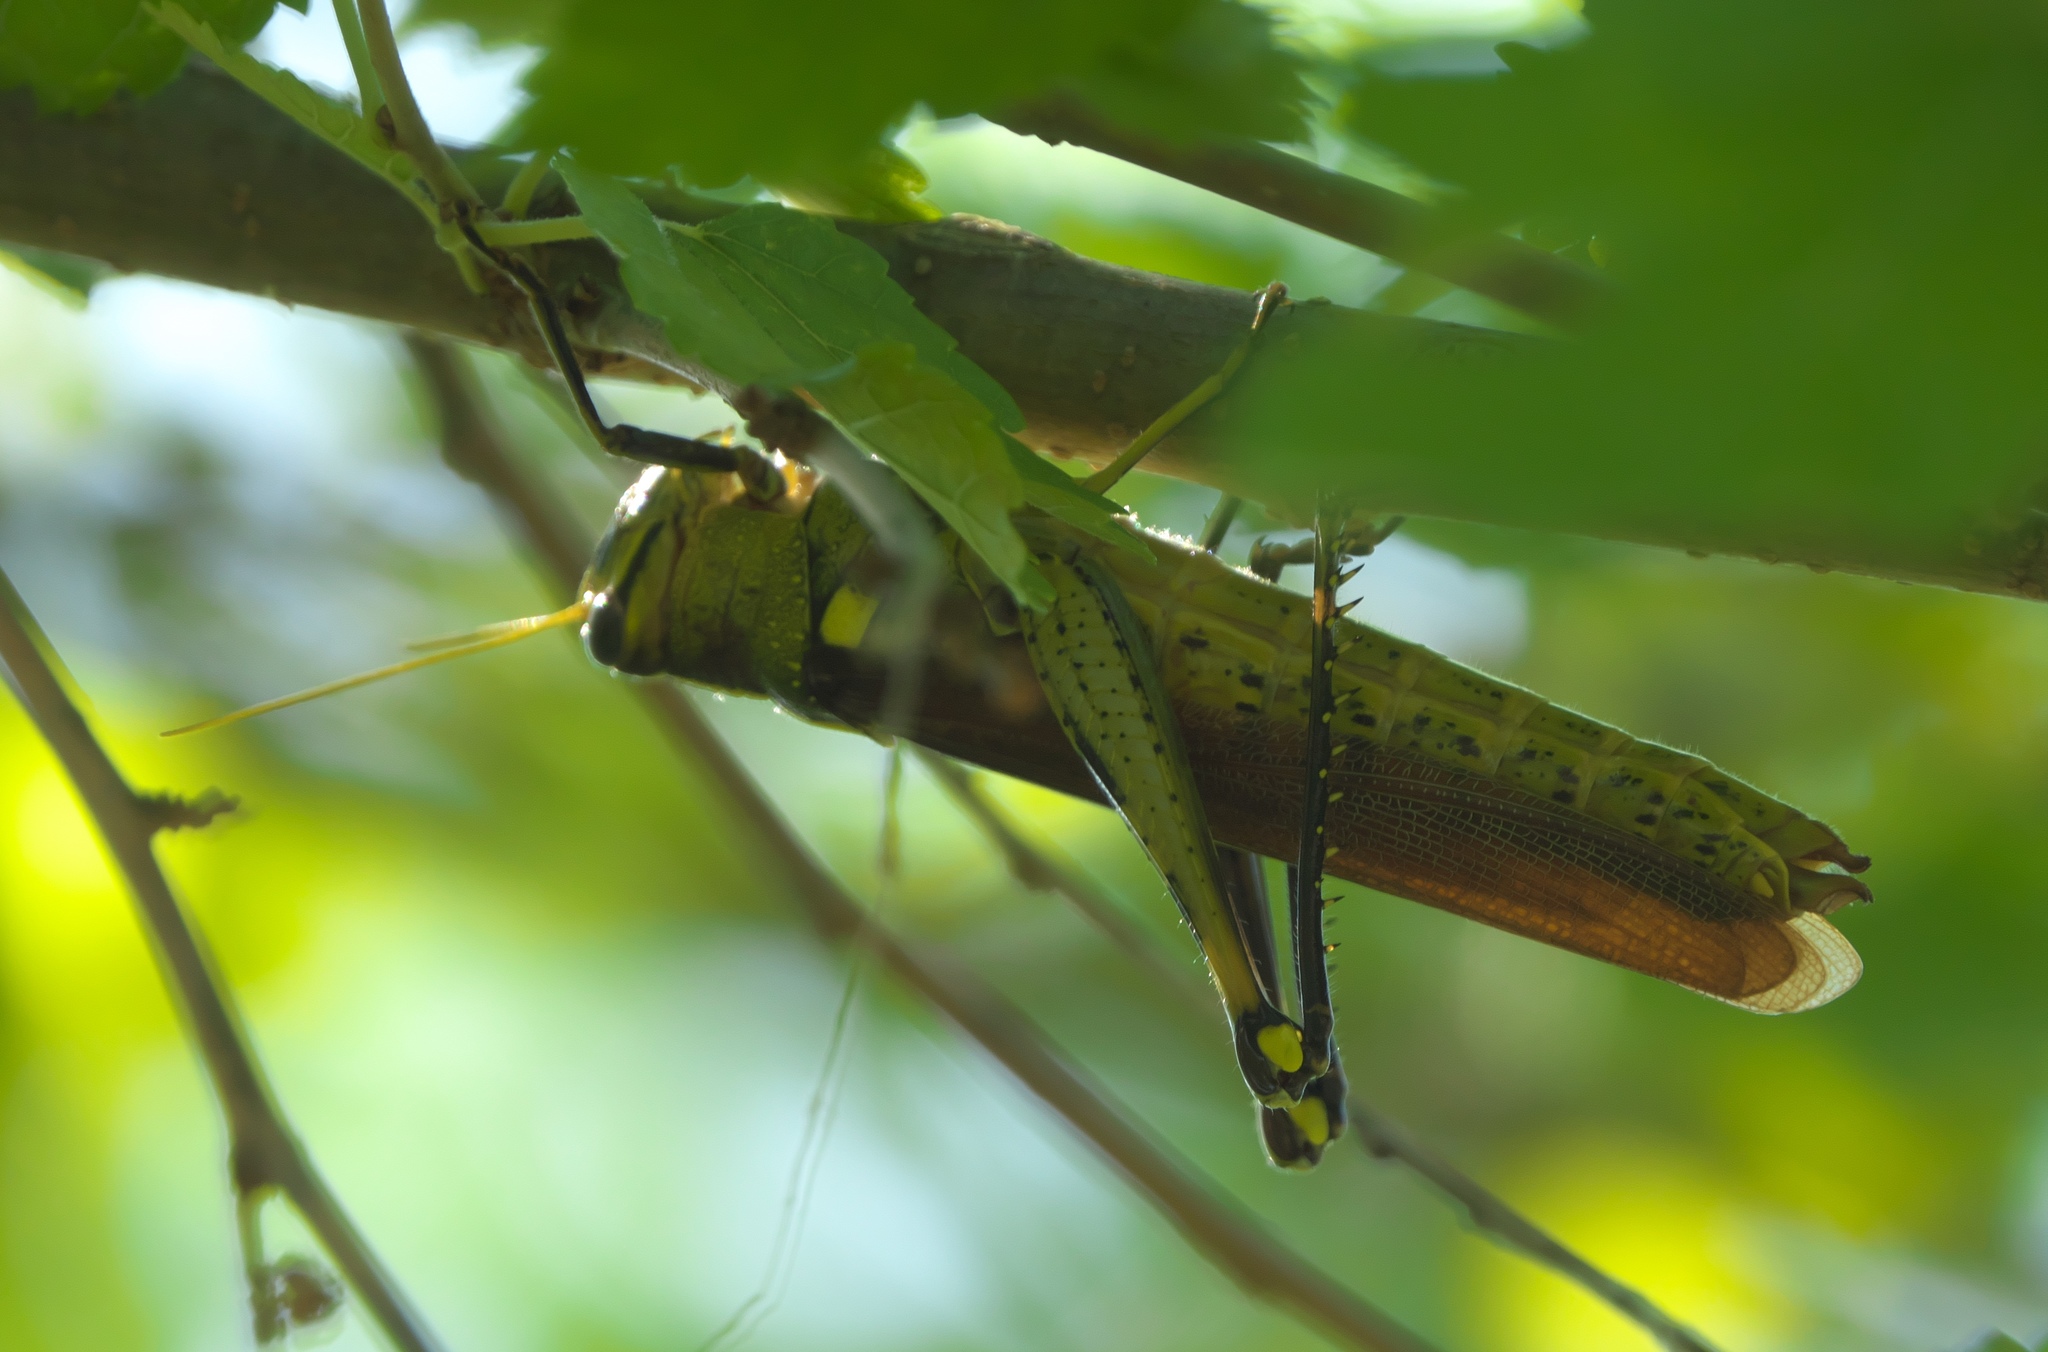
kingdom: Animalia
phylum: Arthropoda
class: Insecta
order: Orthoptera
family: Acrididae
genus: Schistocerca
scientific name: Schistocerca obscura
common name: Obscure bird grasshopper
